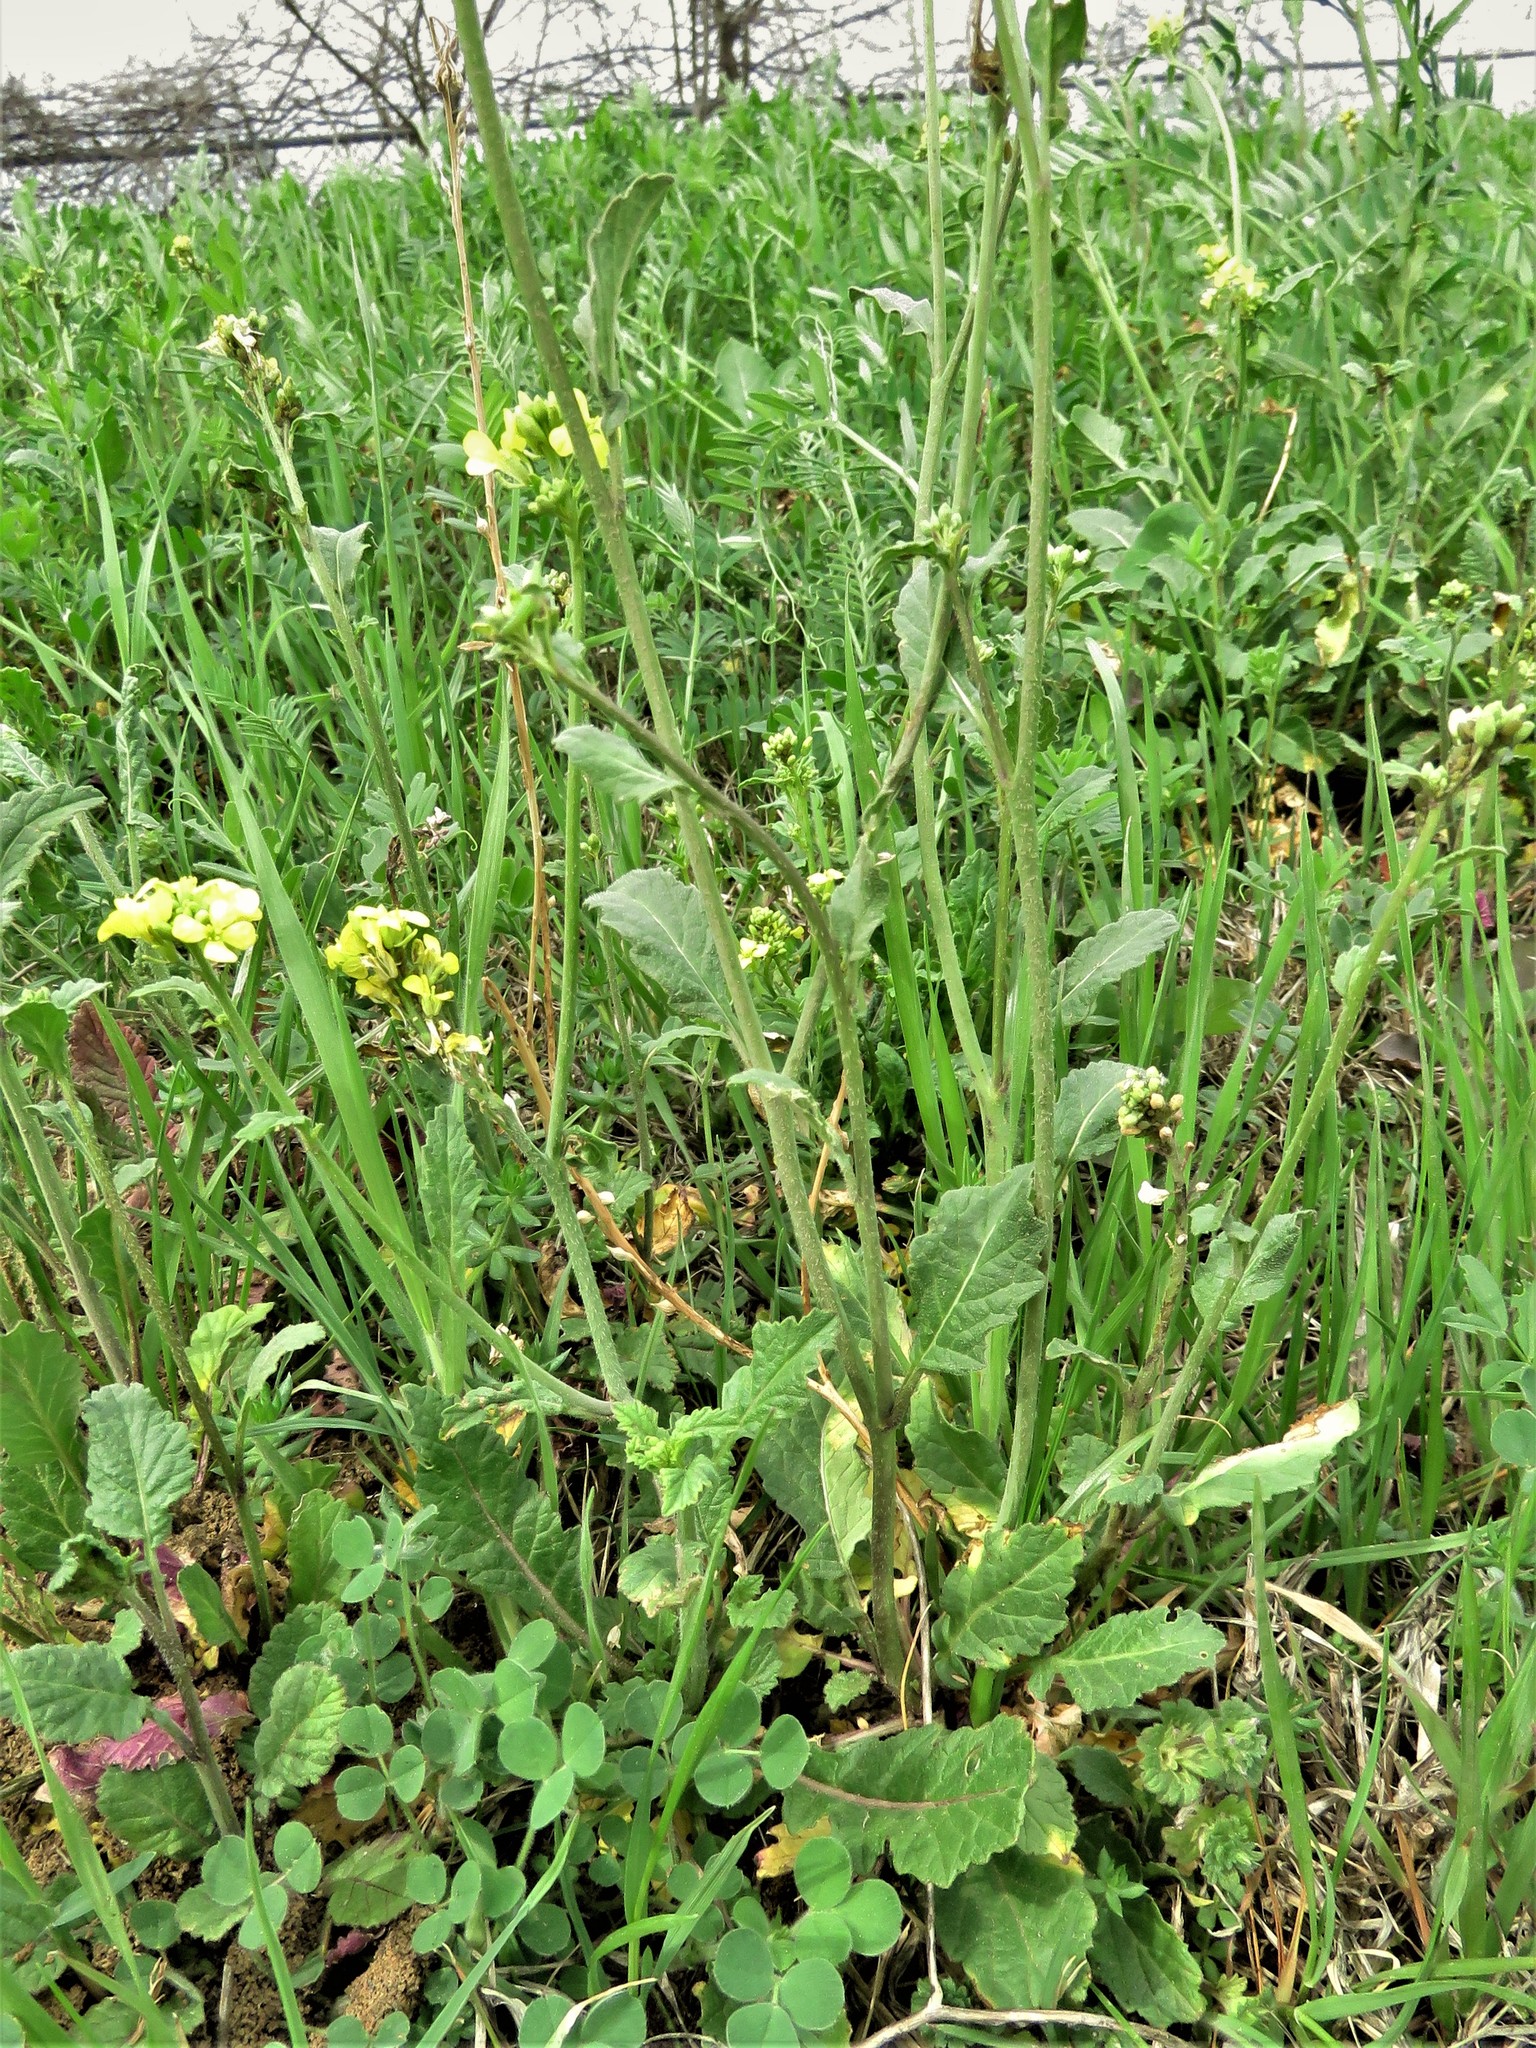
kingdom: Plantae
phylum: Tracheophyta
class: Magnoliopsida
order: Brassicales
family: Brassicaceae
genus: Rapistrum
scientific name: Rapistrum rugosum
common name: Annual bastardcabbage
